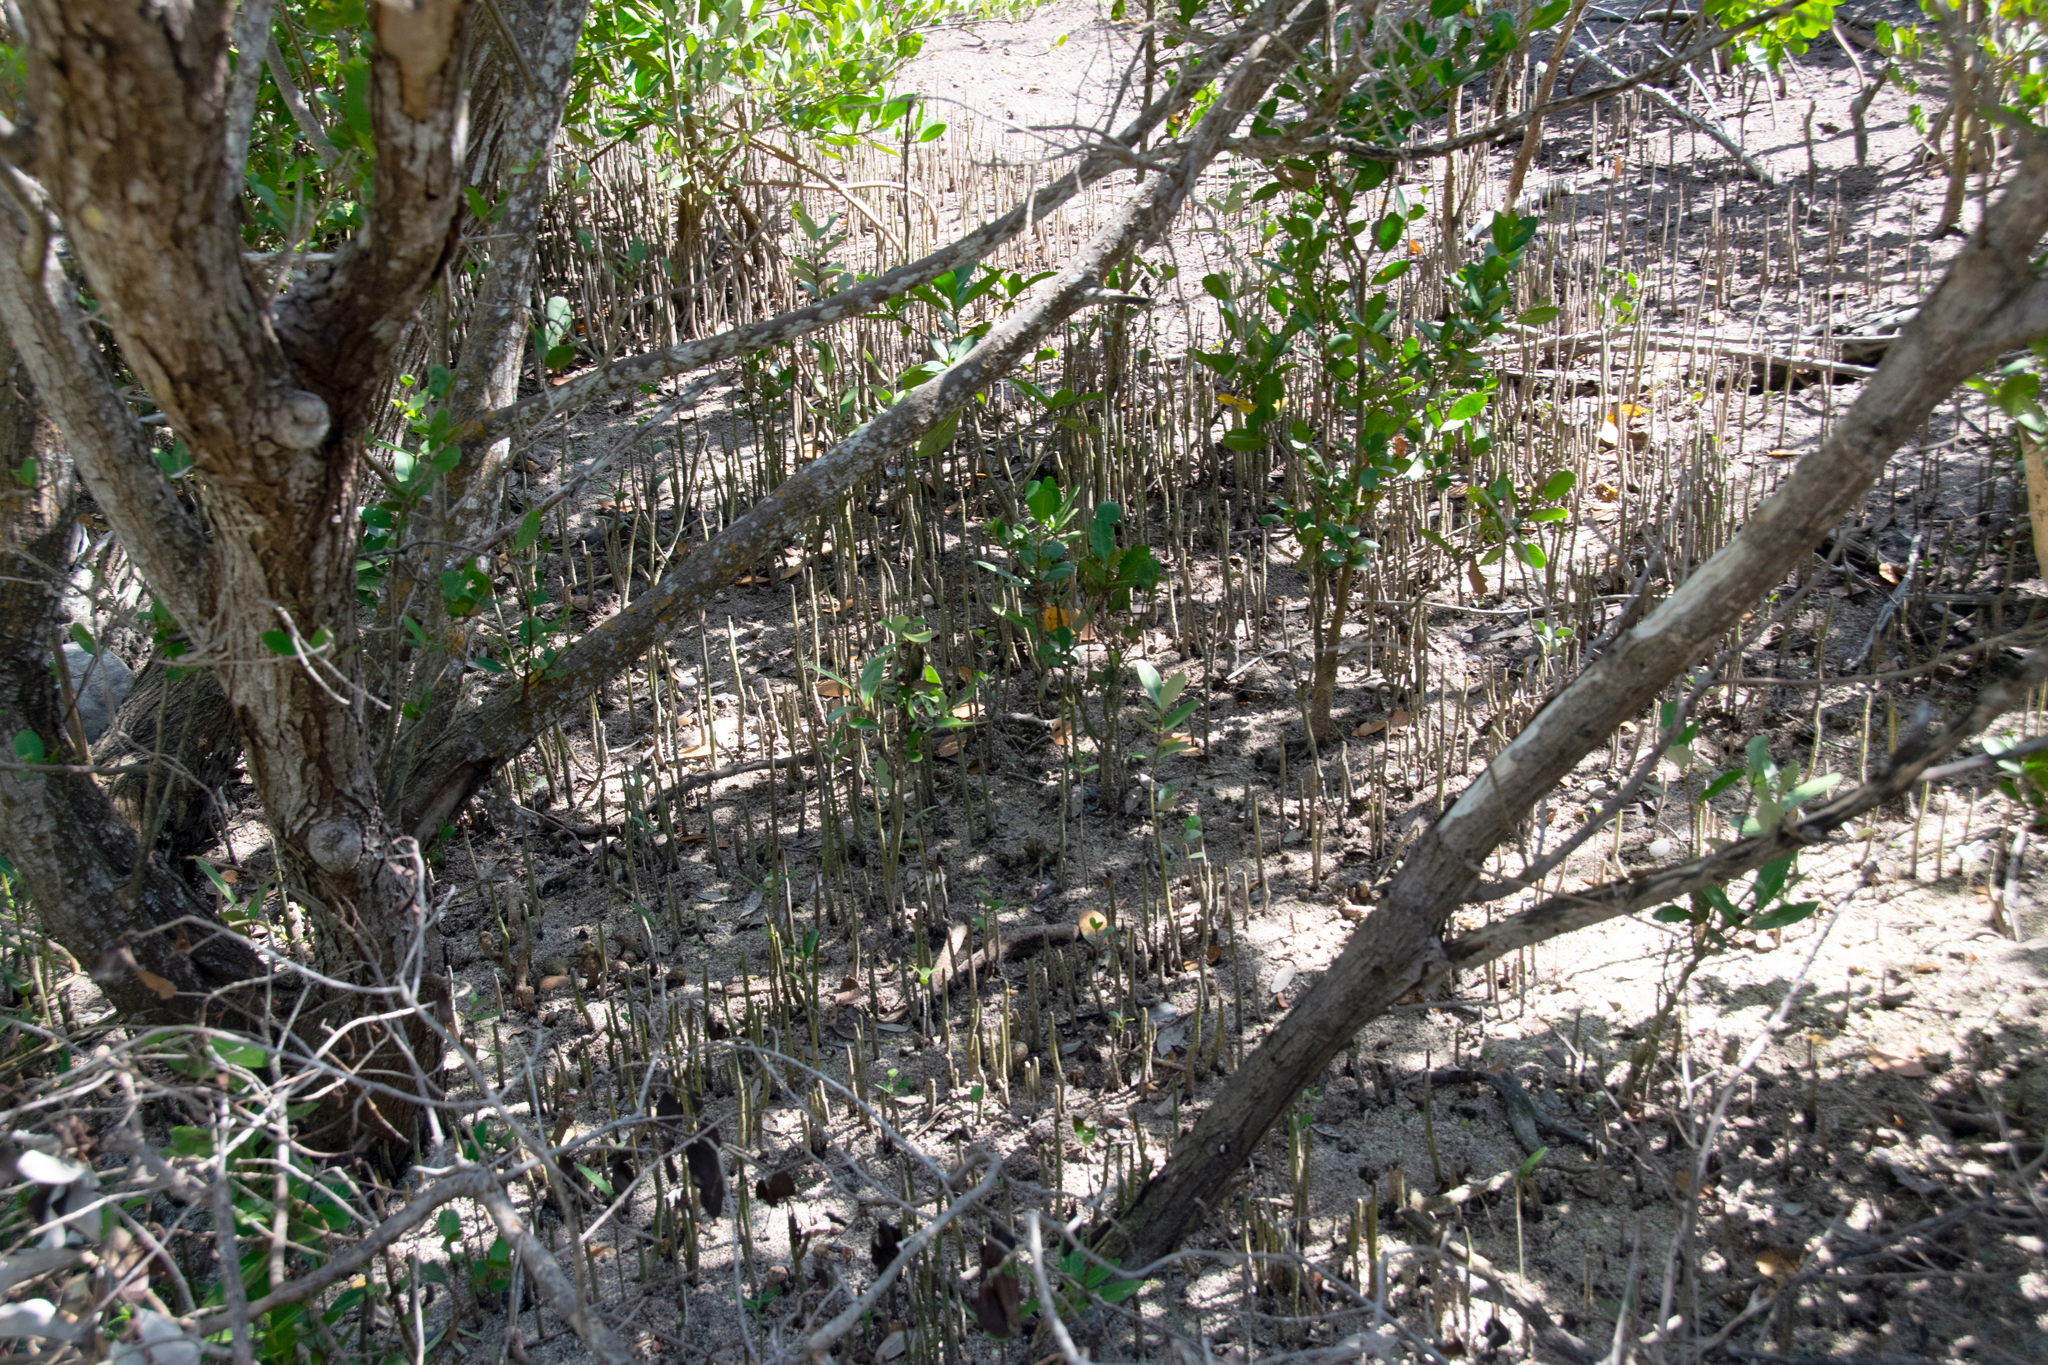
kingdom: Plantae
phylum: Tracheophyta
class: Magnoliopsida
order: Lamiales
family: Acanthaceae
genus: Avicennia
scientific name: Avicennia germinans
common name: Black mangrove
